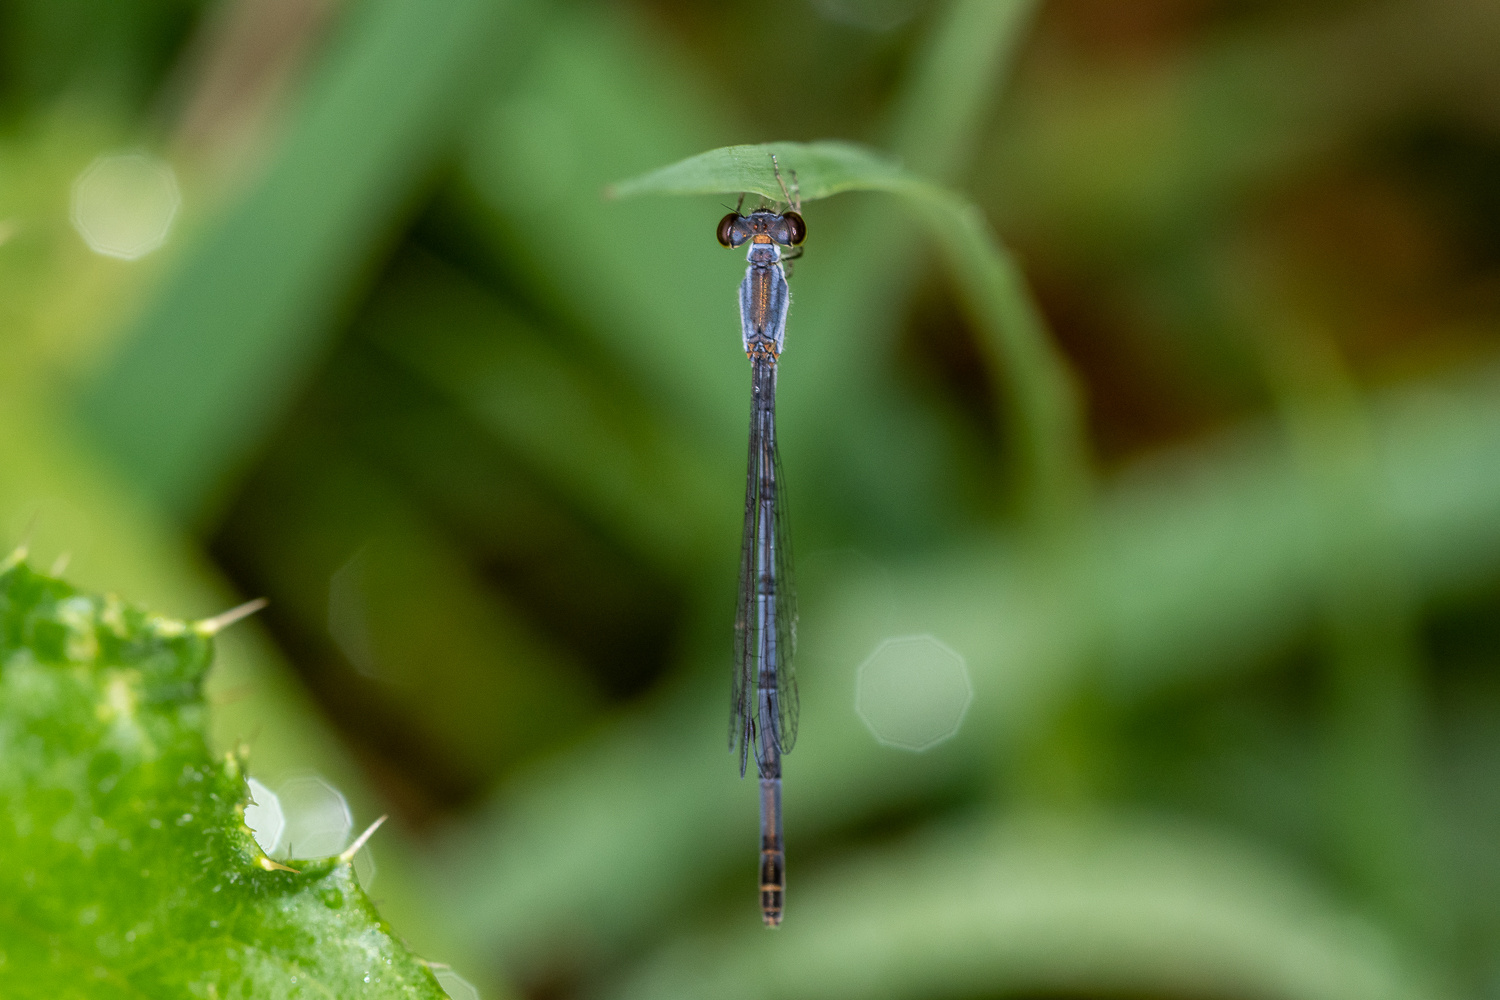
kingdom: Animalia
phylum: Arthropoda
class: Insecta
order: Odonata
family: Coenagrionidae
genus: Ischnura
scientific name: Ischnura posita
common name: Fragile forktail
